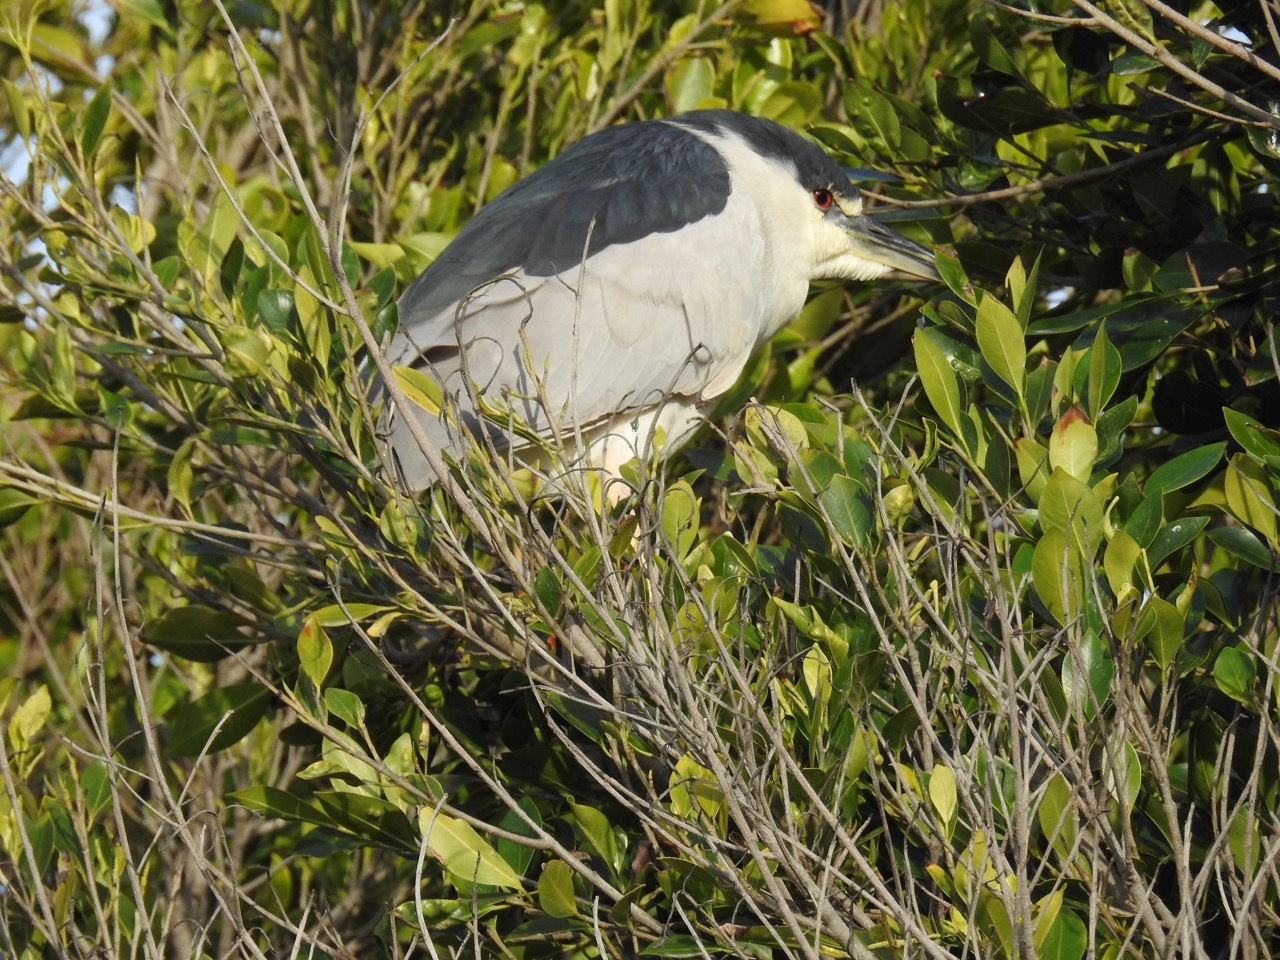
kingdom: Animalia
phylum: Chordata
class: Aves
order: Pelecaniformes
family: Ardeidae
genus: Nycticorax
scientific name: Nycticorax nycticorax
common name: Black-crowned night heron
